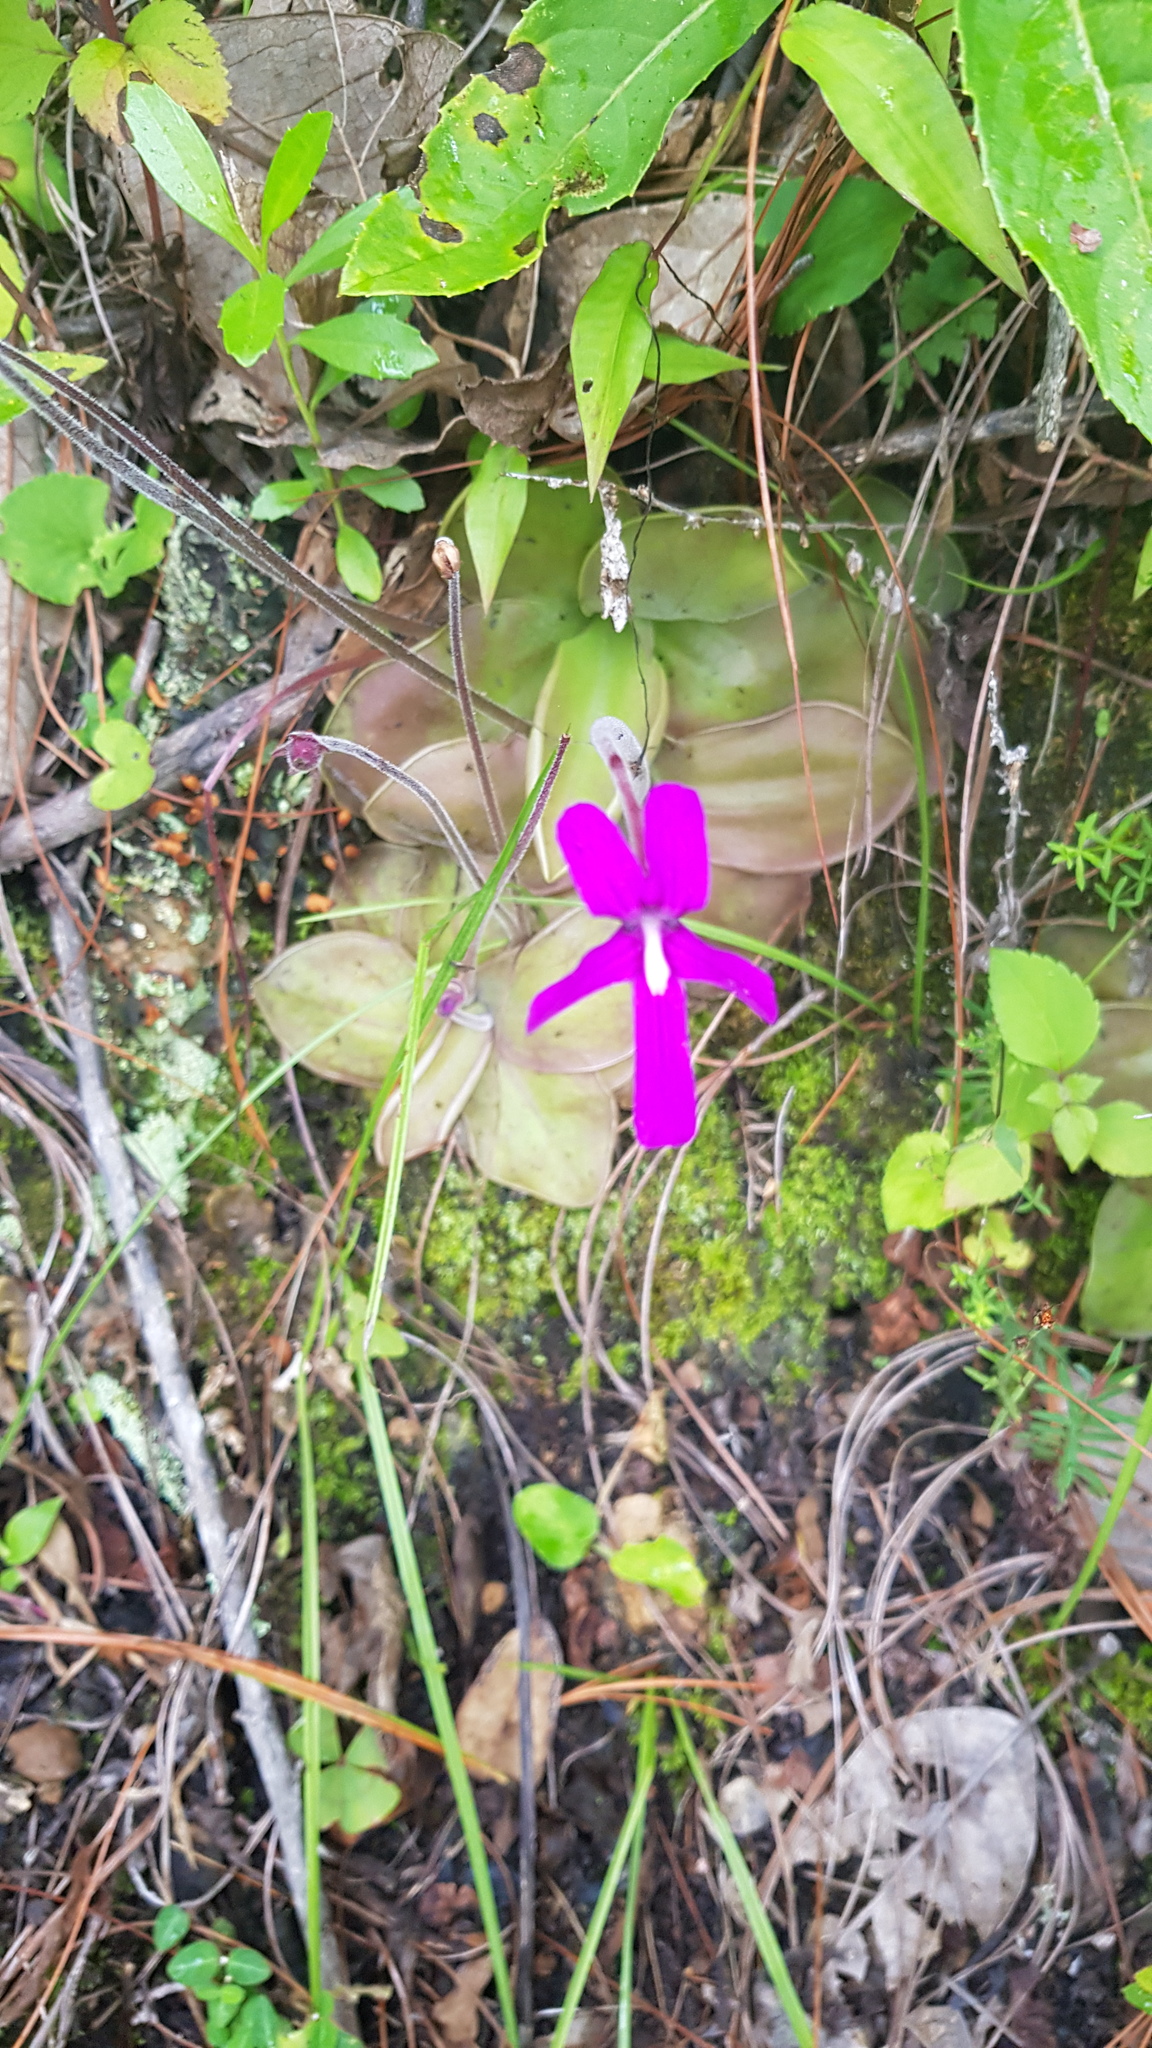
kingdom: Plantae
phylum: Tracheophyta
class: Magnoliopsida
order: Lamiales
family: Lentibulariaceae
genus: Pinguicula
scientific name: Pinguicula moranensis
